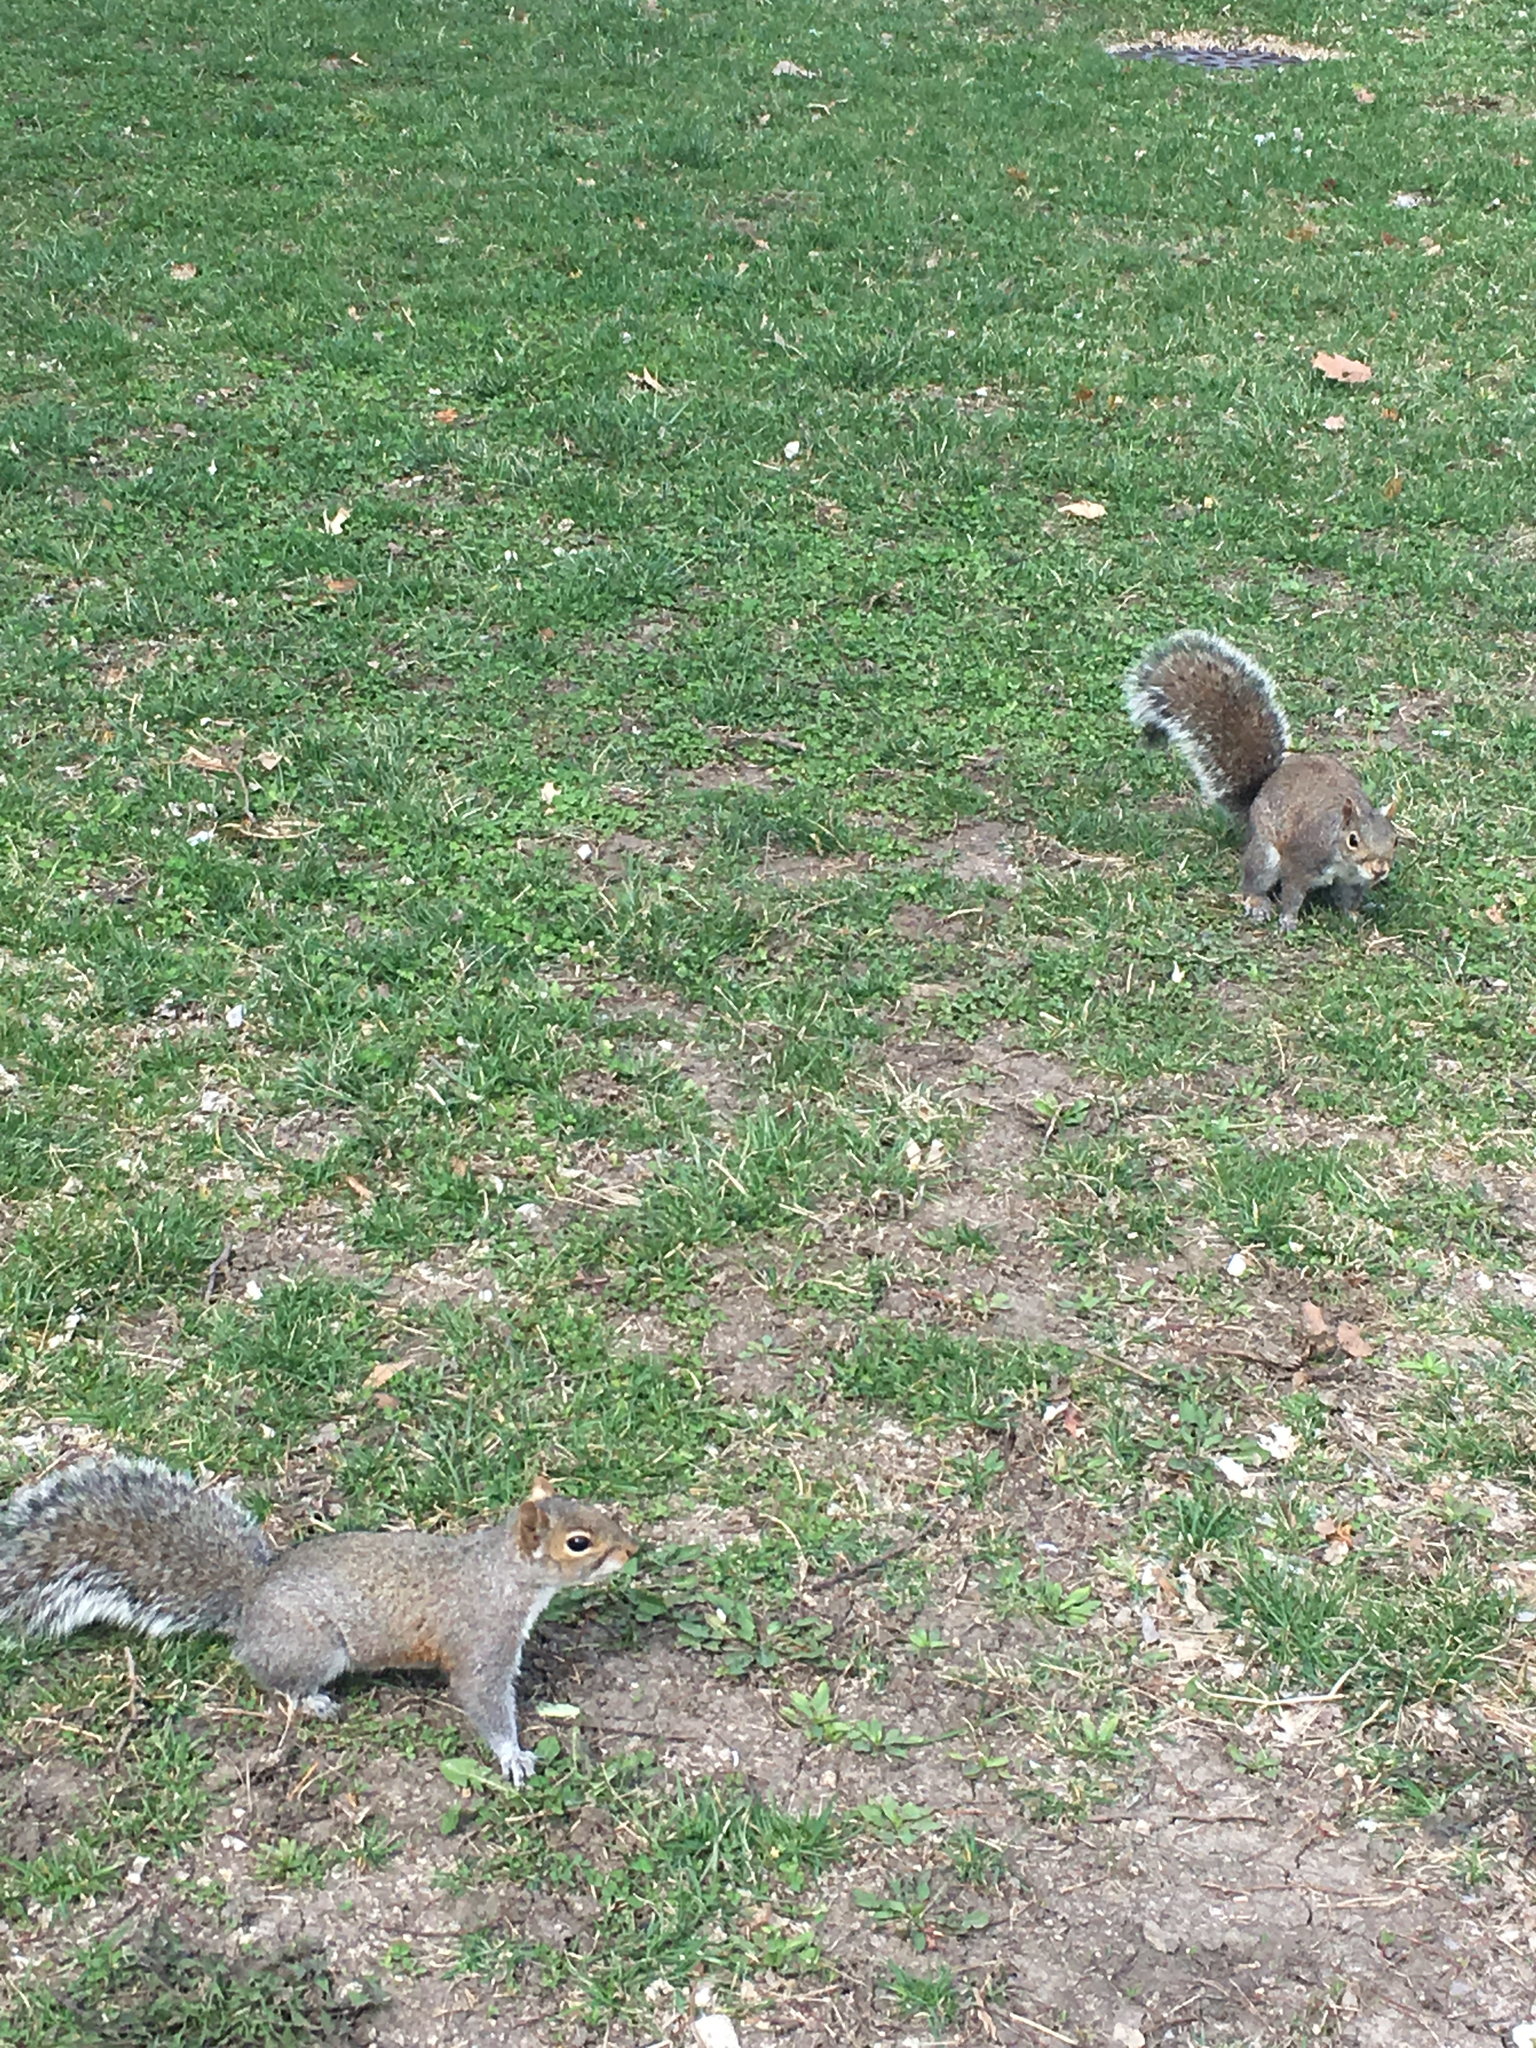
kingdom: Animalia
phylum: Chordata
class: Mammalia
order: Rodentia
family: Sciuridae
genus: Sciurus
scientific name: Sciurus carolinensis
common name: Eastern gray squirrel
